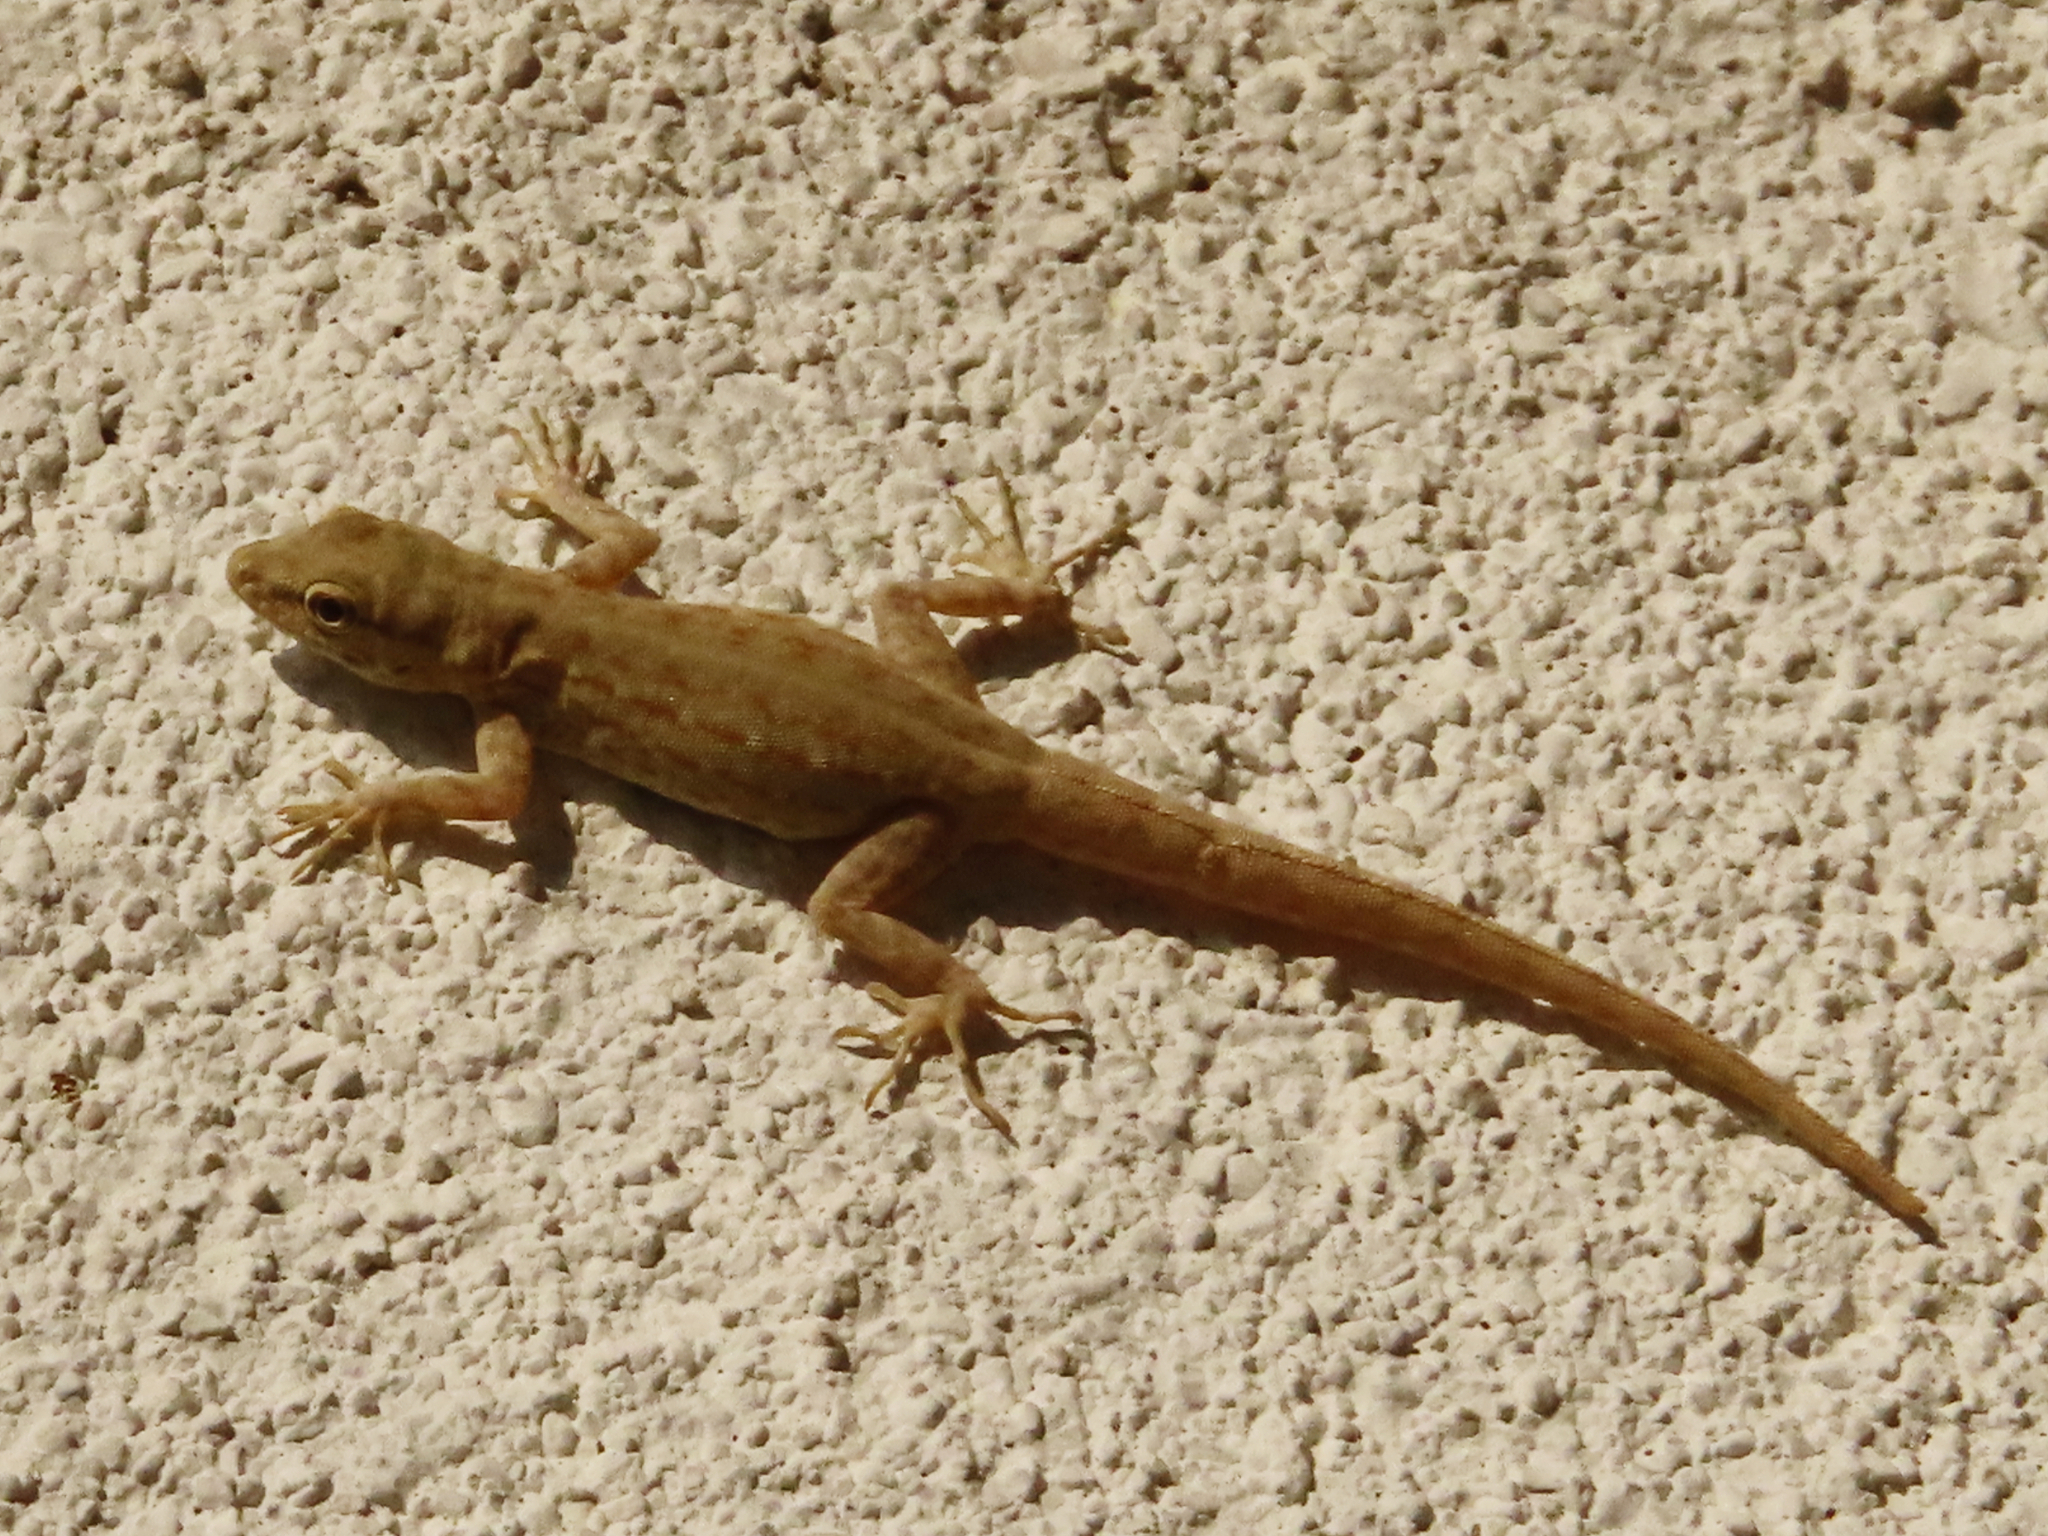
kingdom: Animalia
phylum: Chordata
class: Squamata
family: Sphaerodactylidae
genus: Pristurus
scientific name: Pristurus rupestris
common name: Blanford’s semaphore gecko
